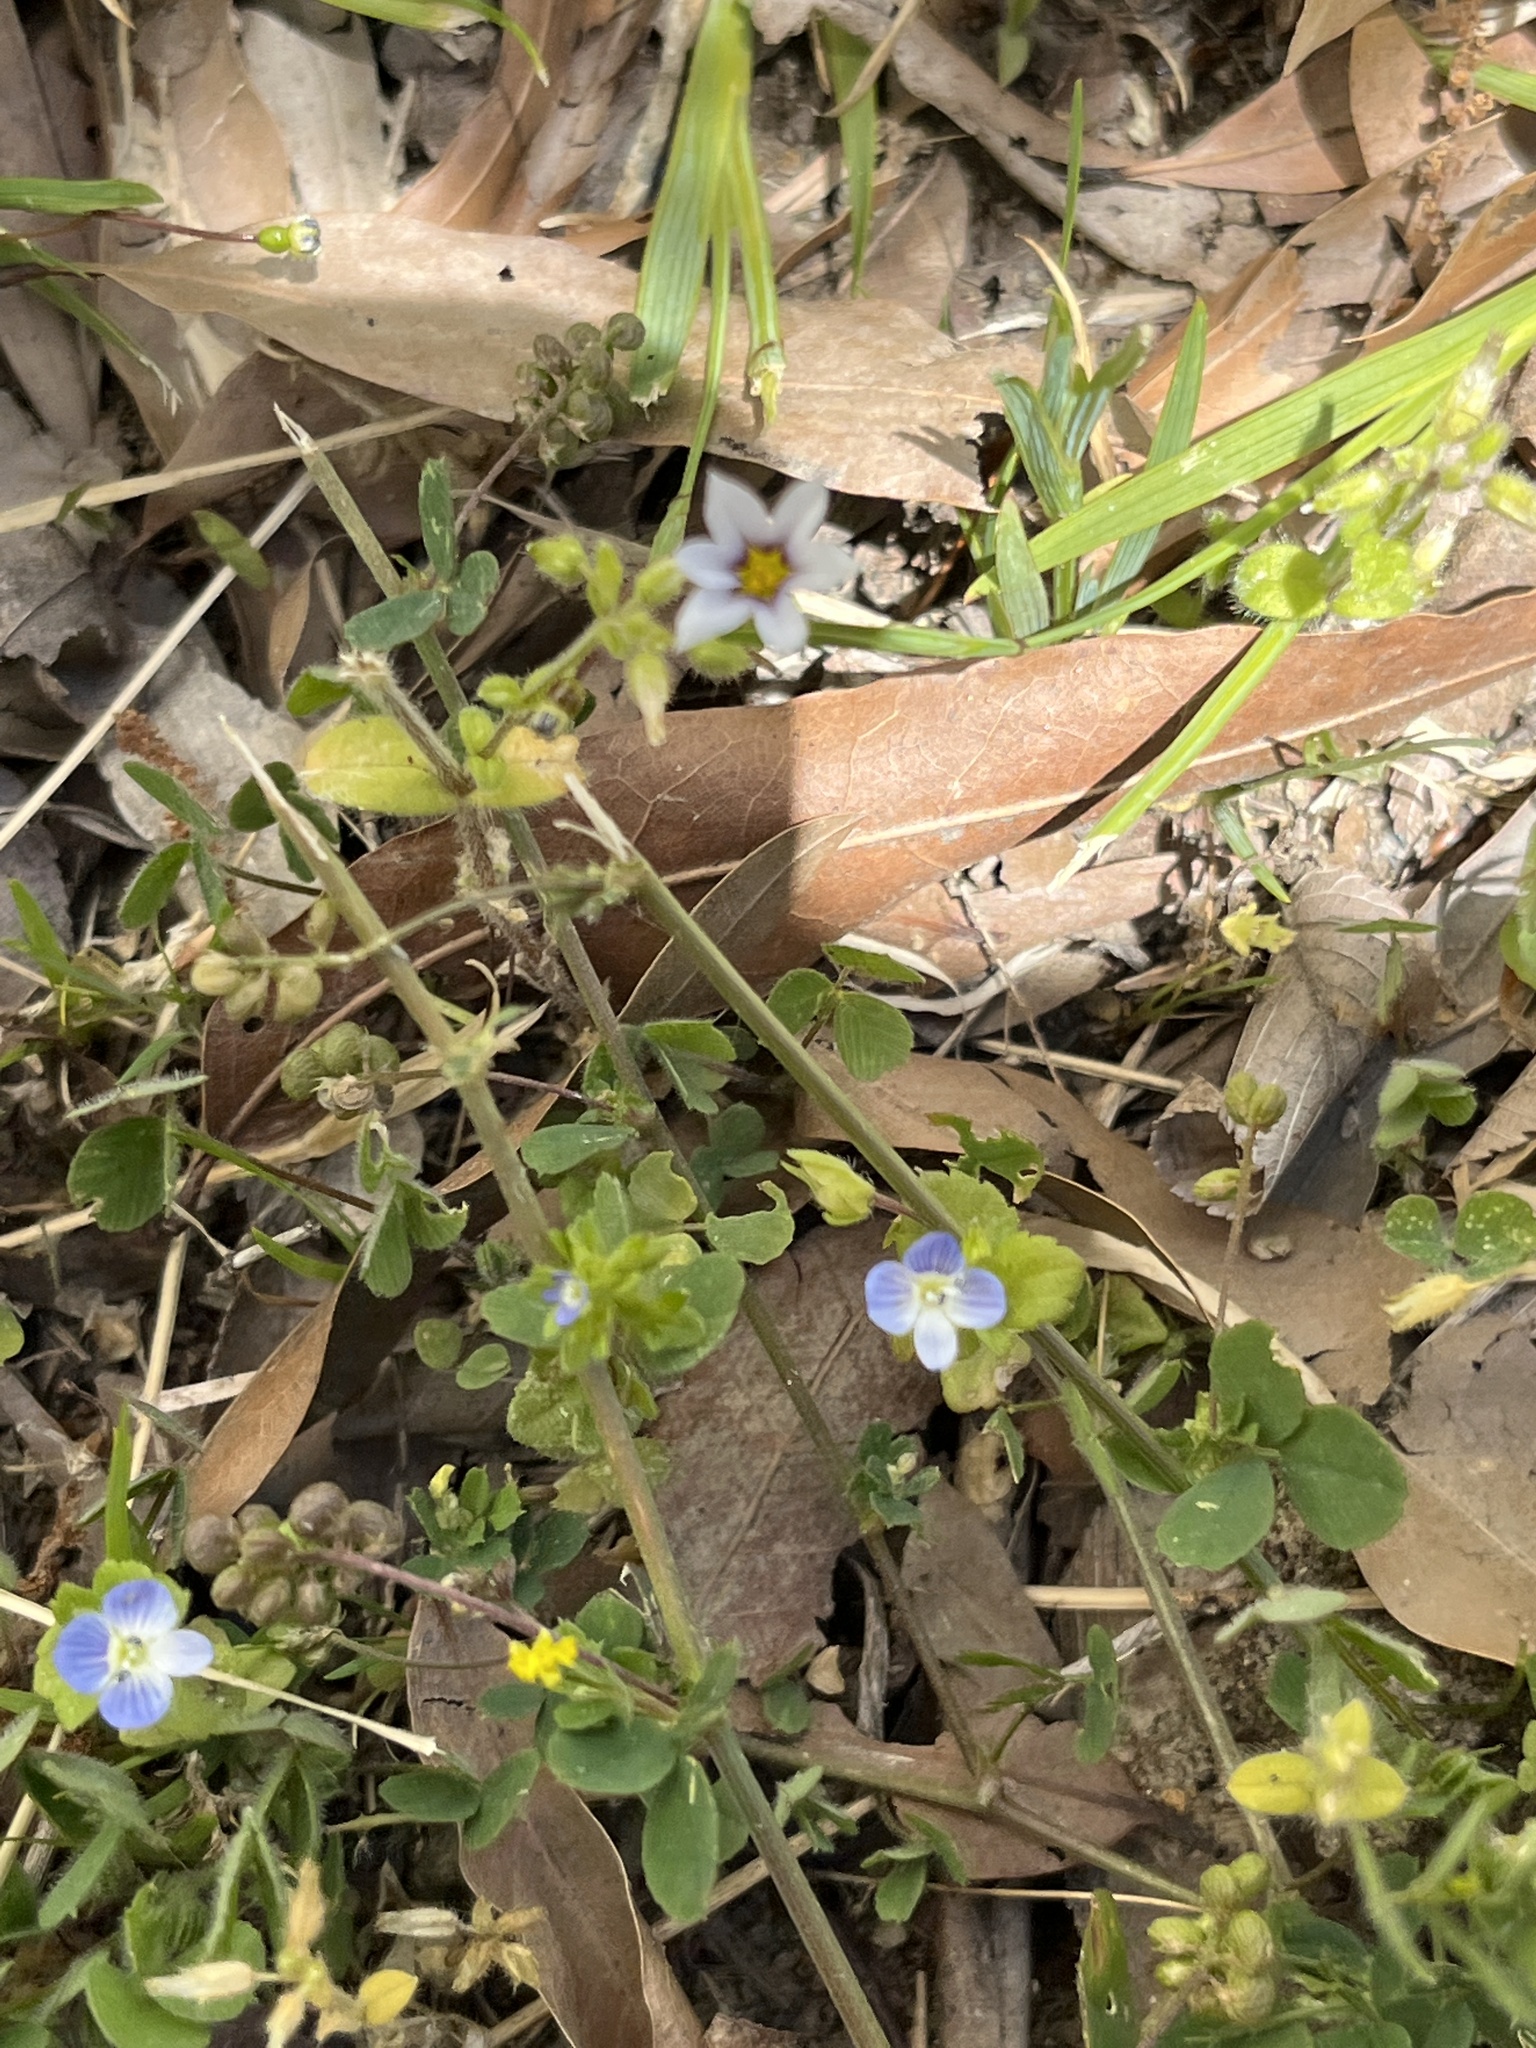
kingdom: Plantae
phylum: Tracheophyta
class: Magnoliopsida
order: Lamiales
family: Plantaginaceae
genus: Veronica
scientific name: Veronica persica
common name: Common field-speedwell
